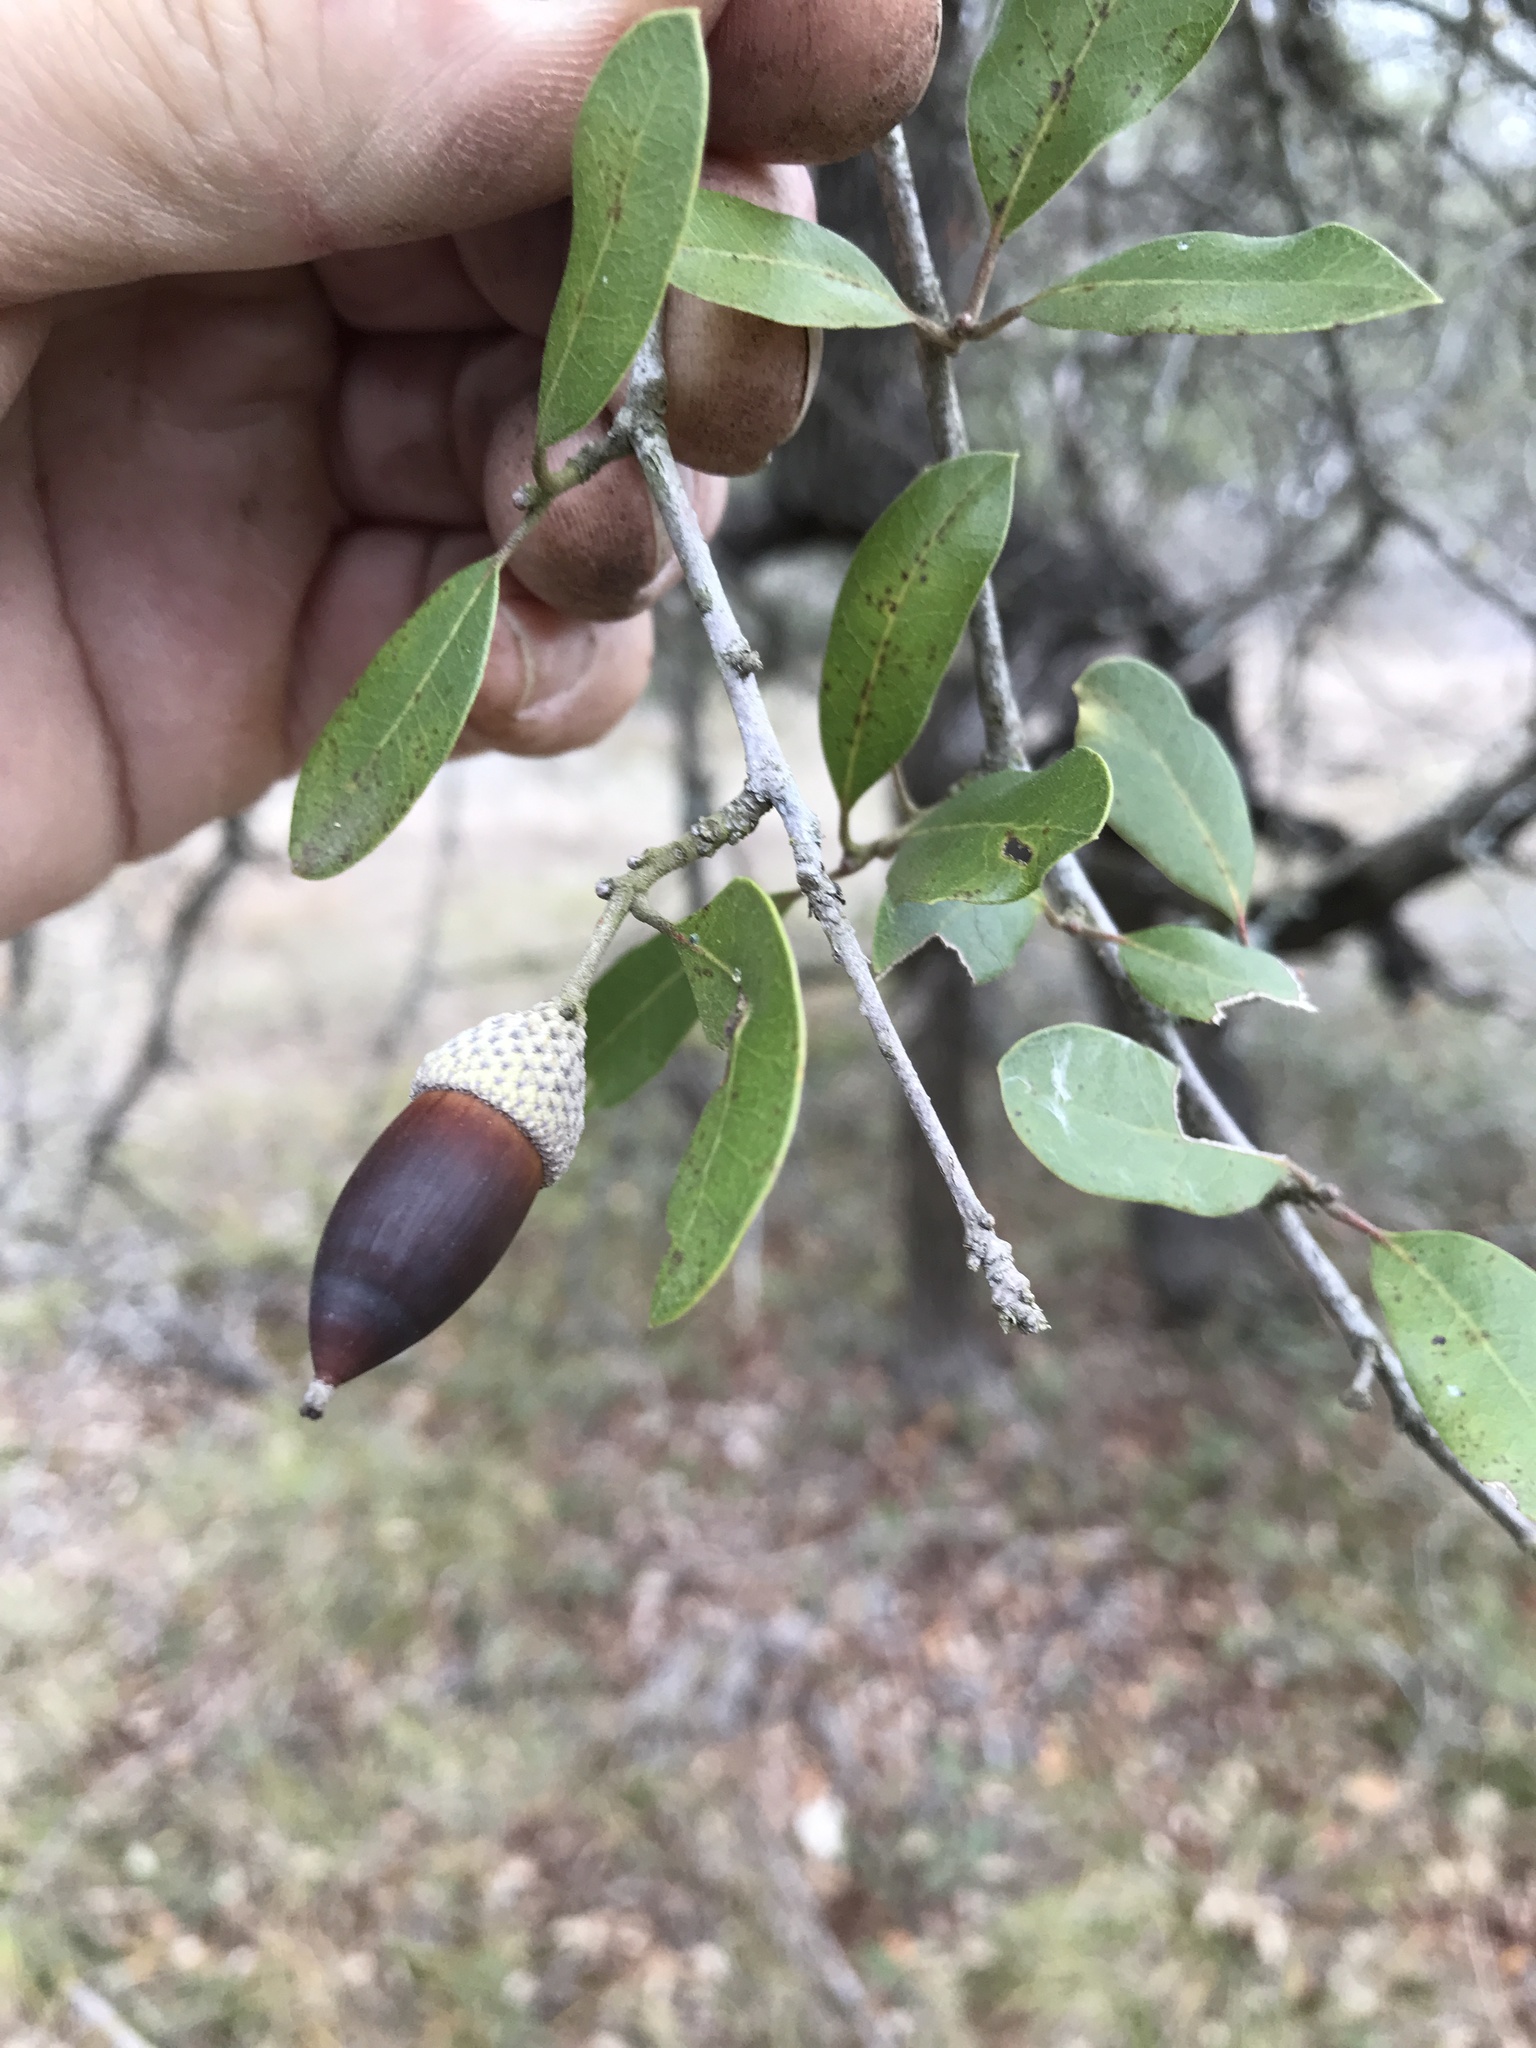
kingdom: Plantae
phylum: Tracheophyta
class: Magnoliopsida
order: Fagales
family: Fagaceae
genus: Quercus
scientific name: Quercus fusiformis
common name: Texas live oak
